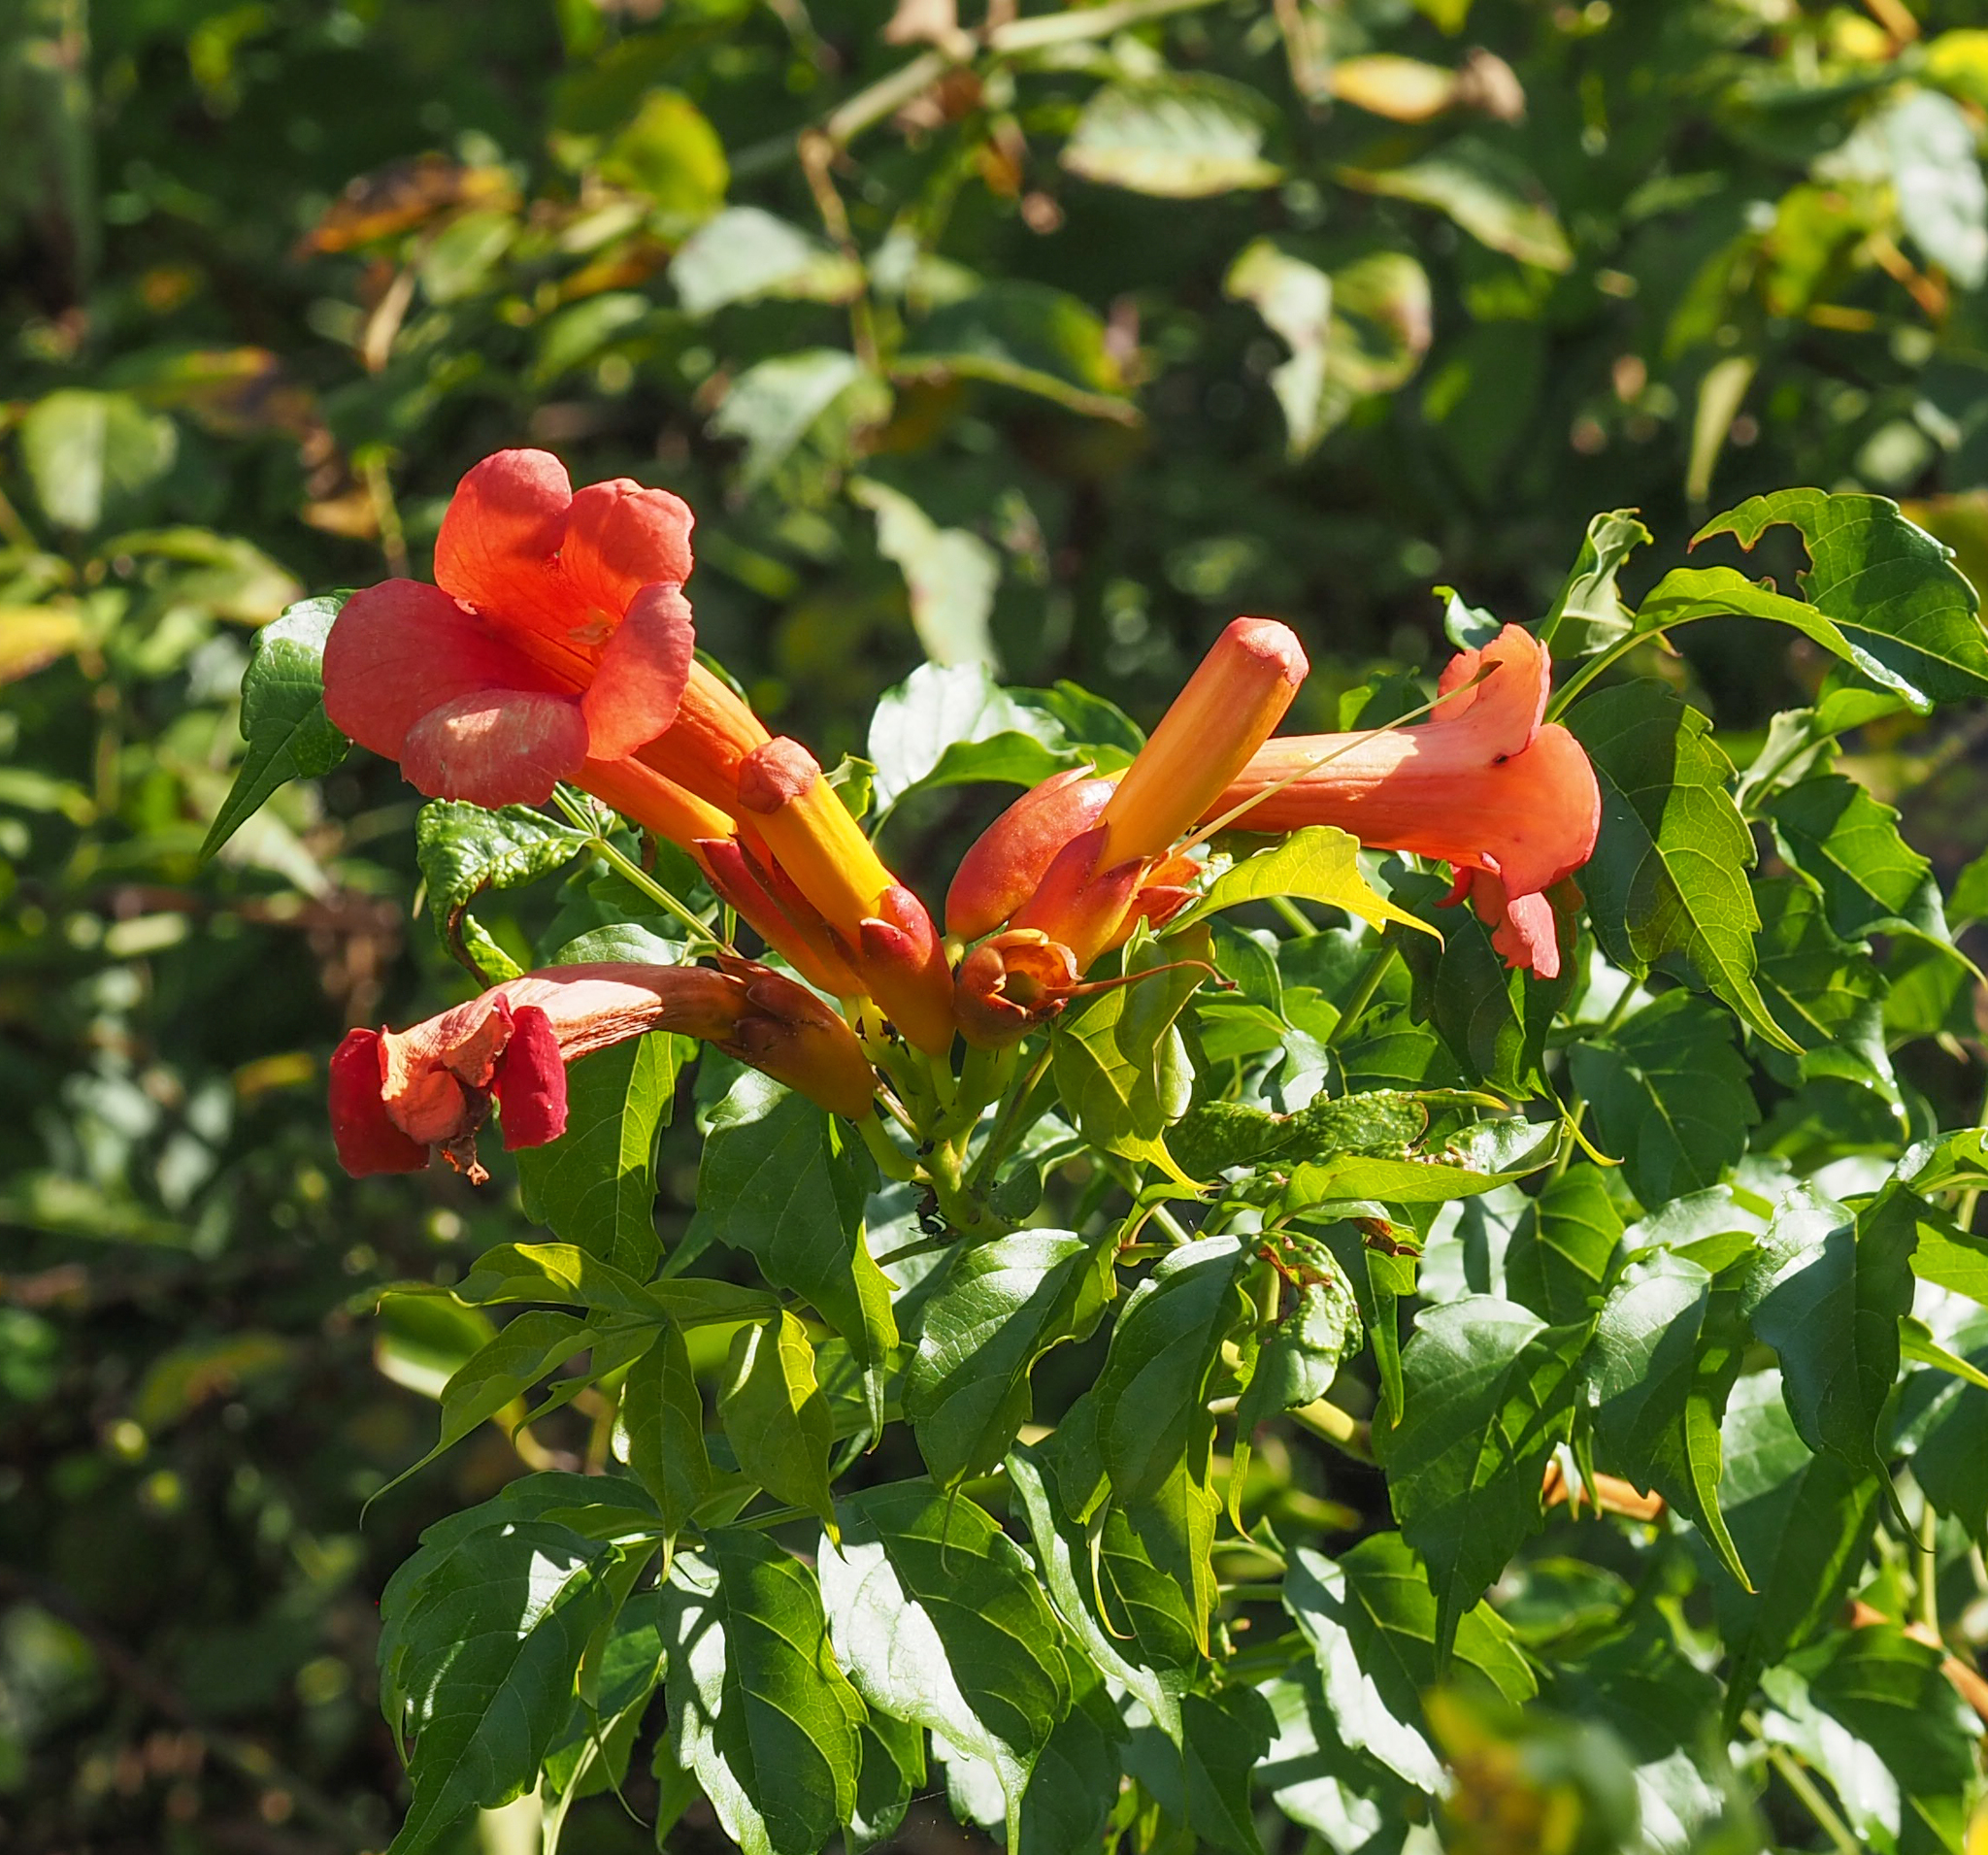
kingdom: Plantae
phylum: Tracheophyta
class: Magnoliopsida
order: Lamiales
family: Bignoniaceae
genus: Campsis
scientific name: Campsis radicans
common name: Trumpet-creeper
